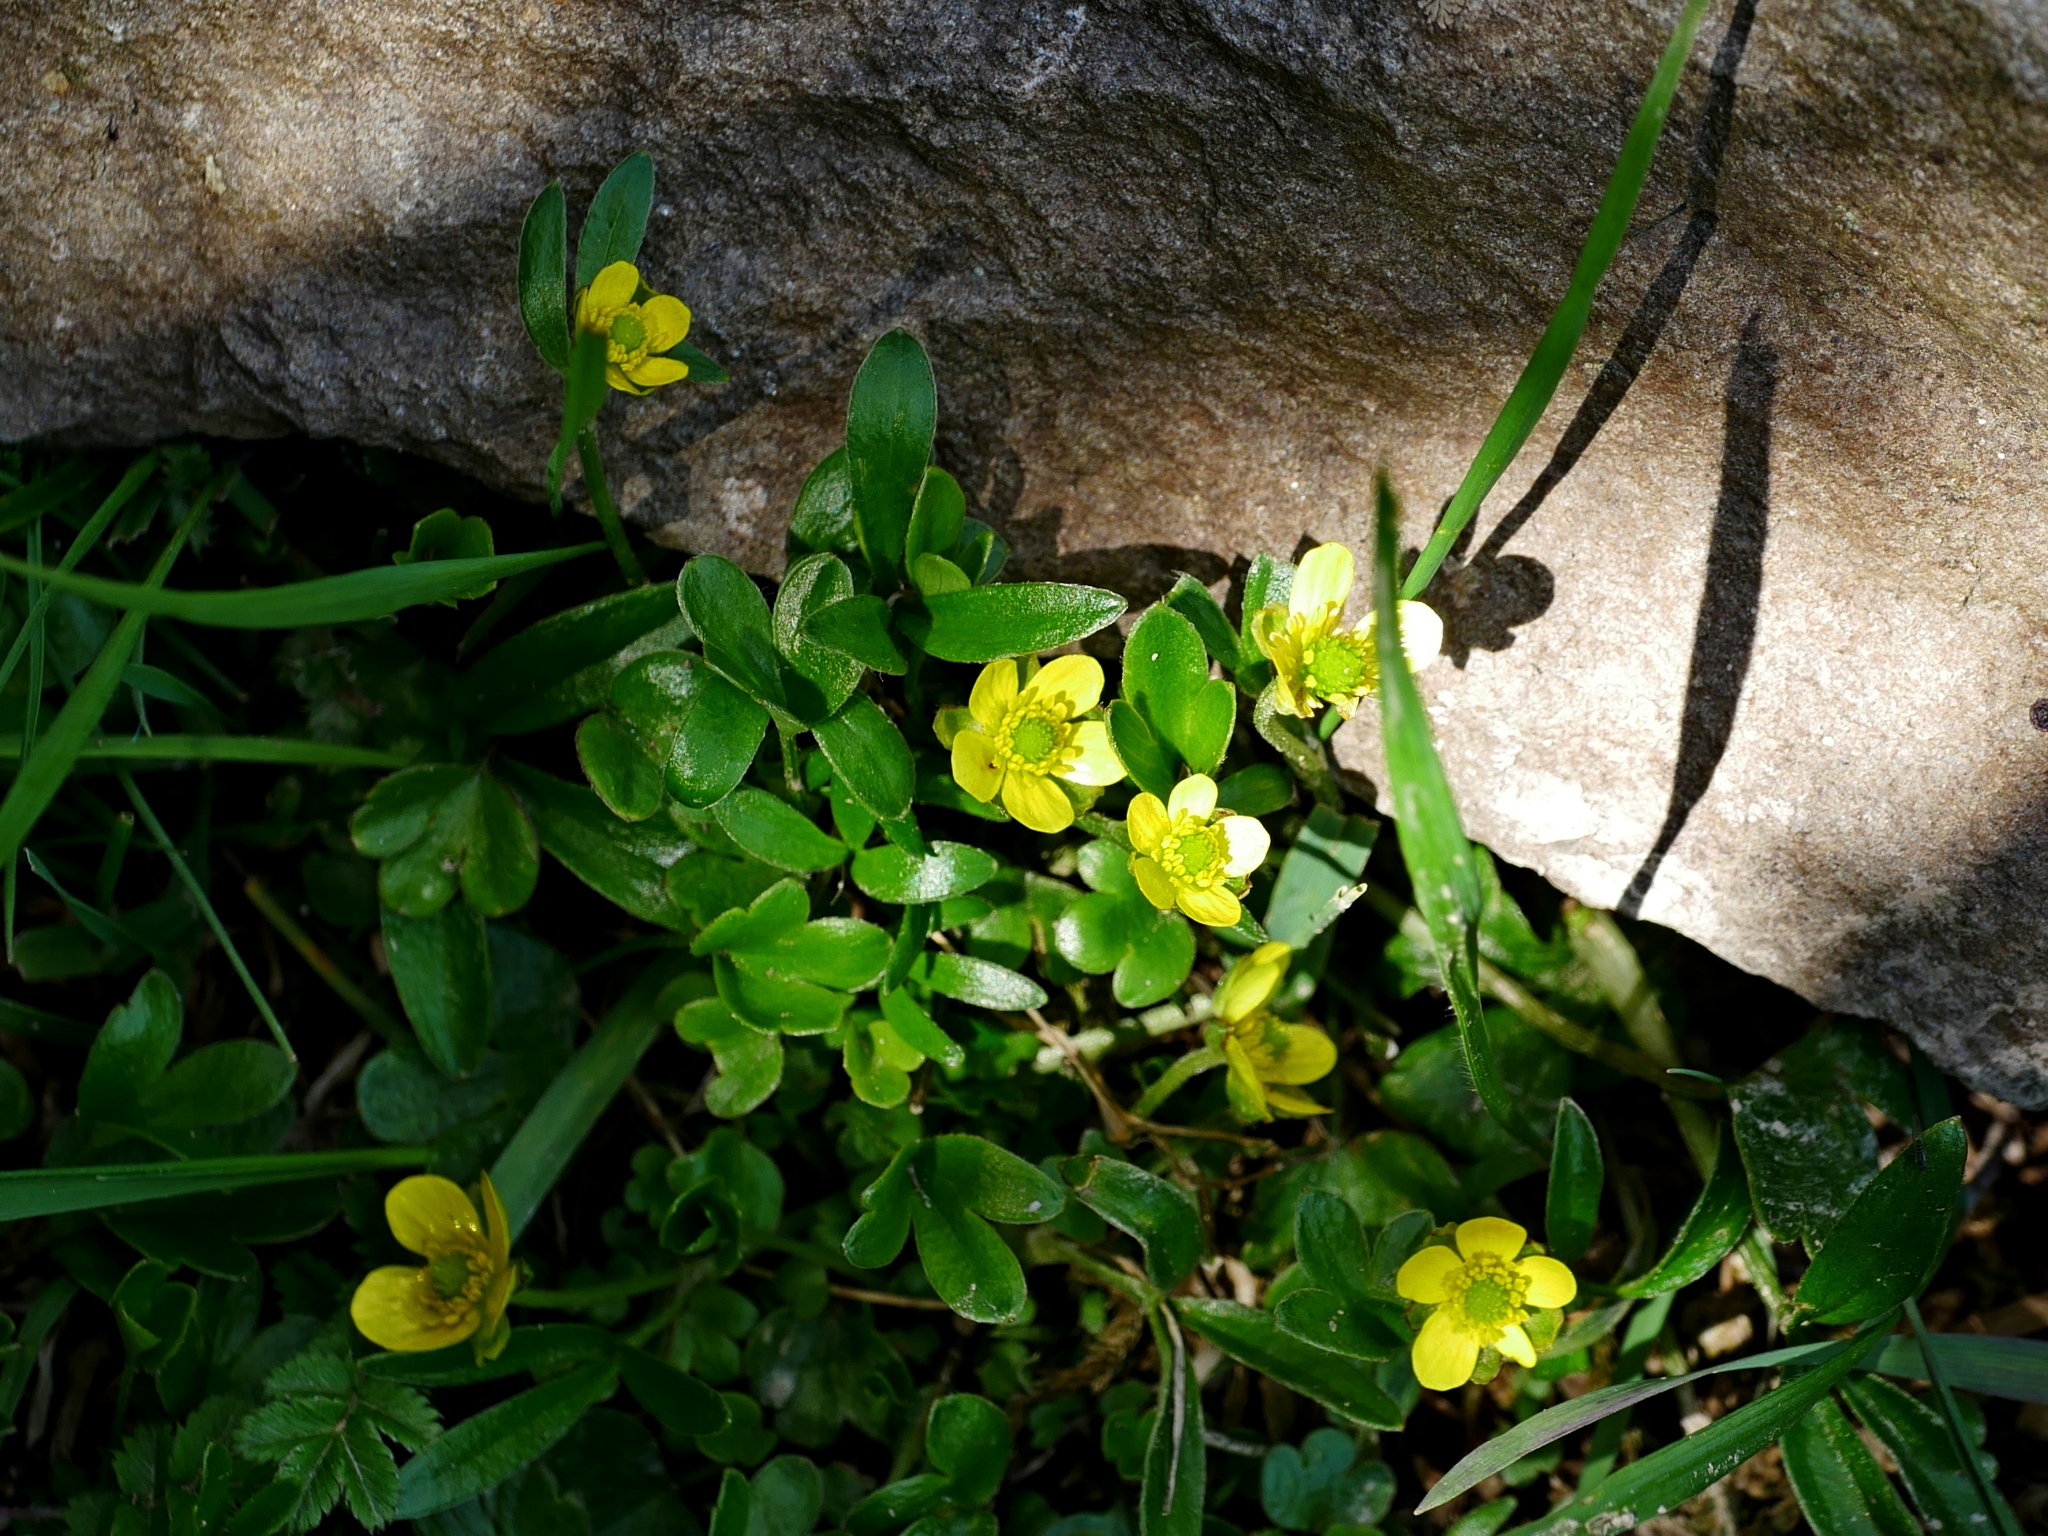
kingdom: Plantae
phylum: Tracheophyta
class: Magnoliopsida
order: Ranunculales
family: Ranunculaceae
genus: Ranunculus
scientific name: Ranunculus junipericola
